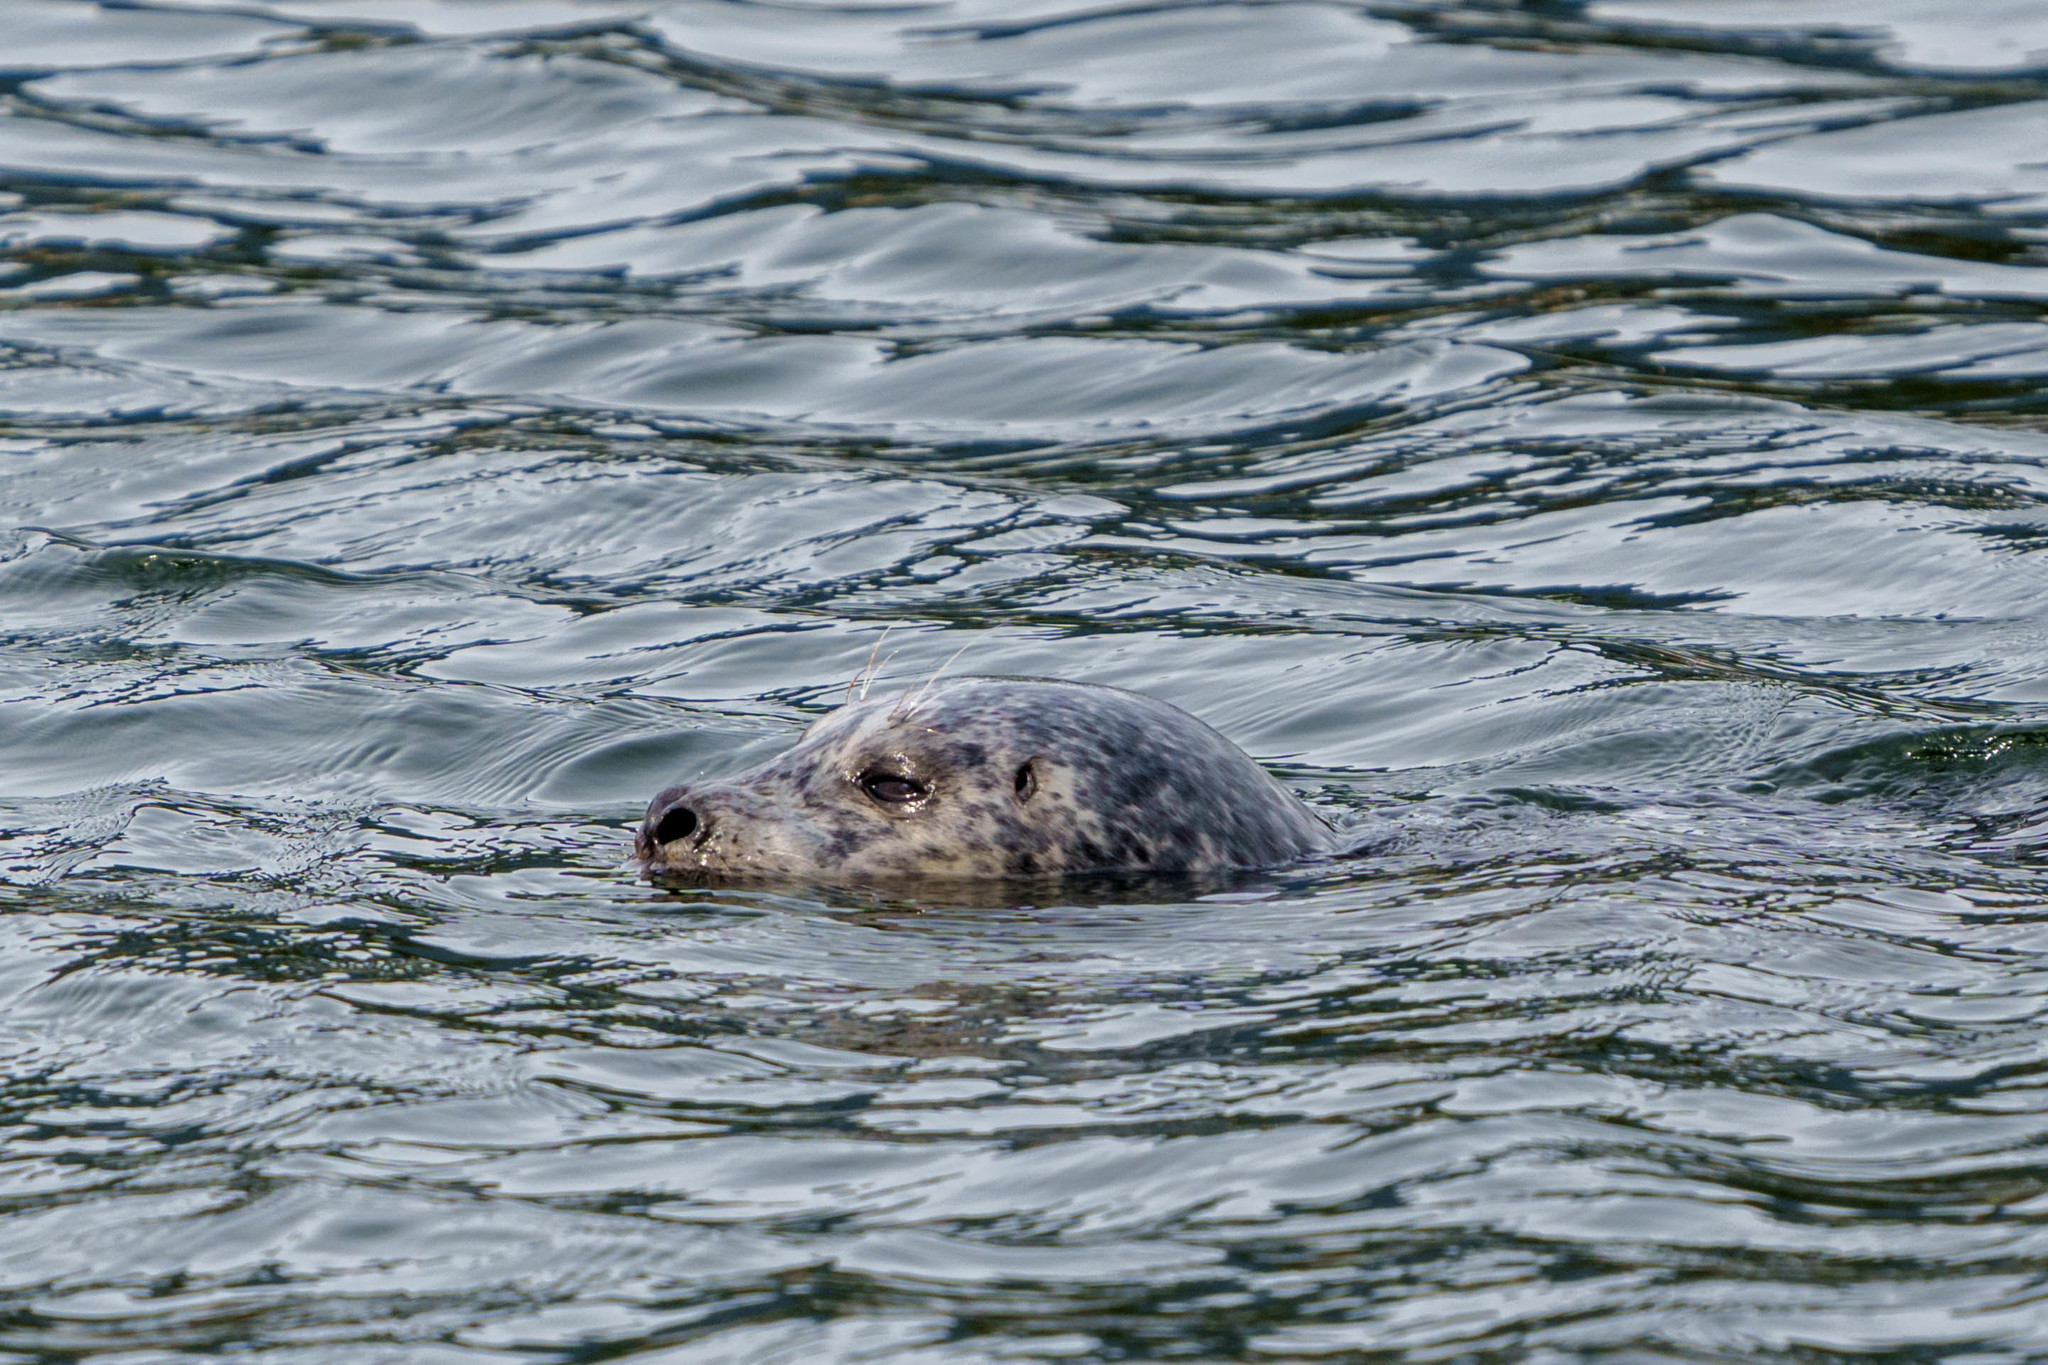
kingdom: Animalia
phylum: Chordata
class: Mammalia
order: Carnivora
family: Phocidae
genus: Phoca
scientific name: Phoca vitulina
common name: Harbor seal
